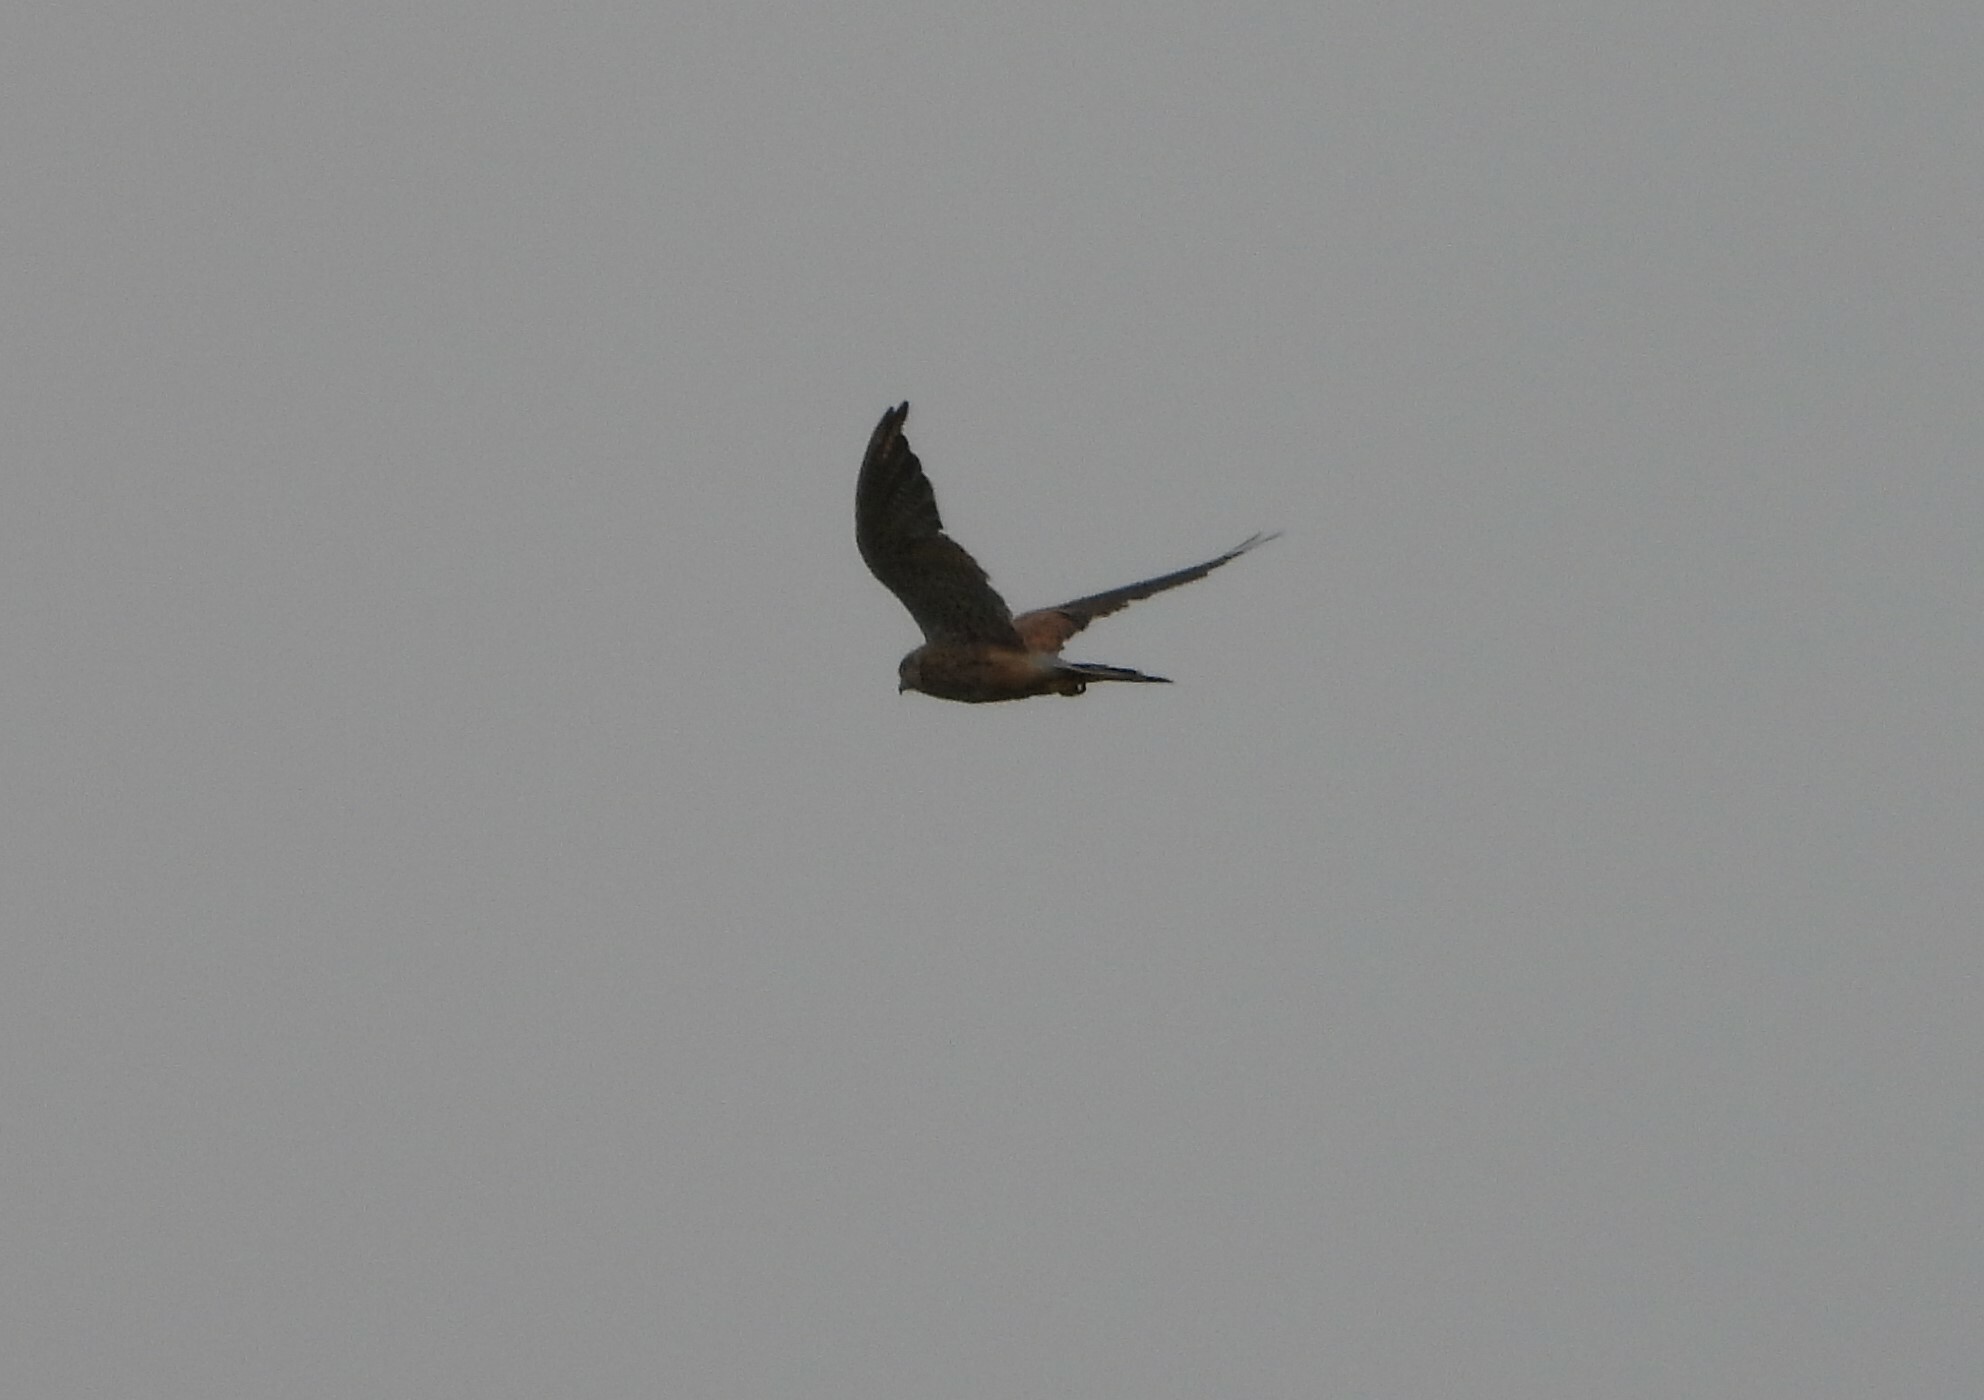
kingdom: Animalia
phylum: Chordata
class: Aves
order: Falconiformes
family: Falconidae
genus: Falco
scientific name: Falco tinnunculus
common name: Common kestrel
